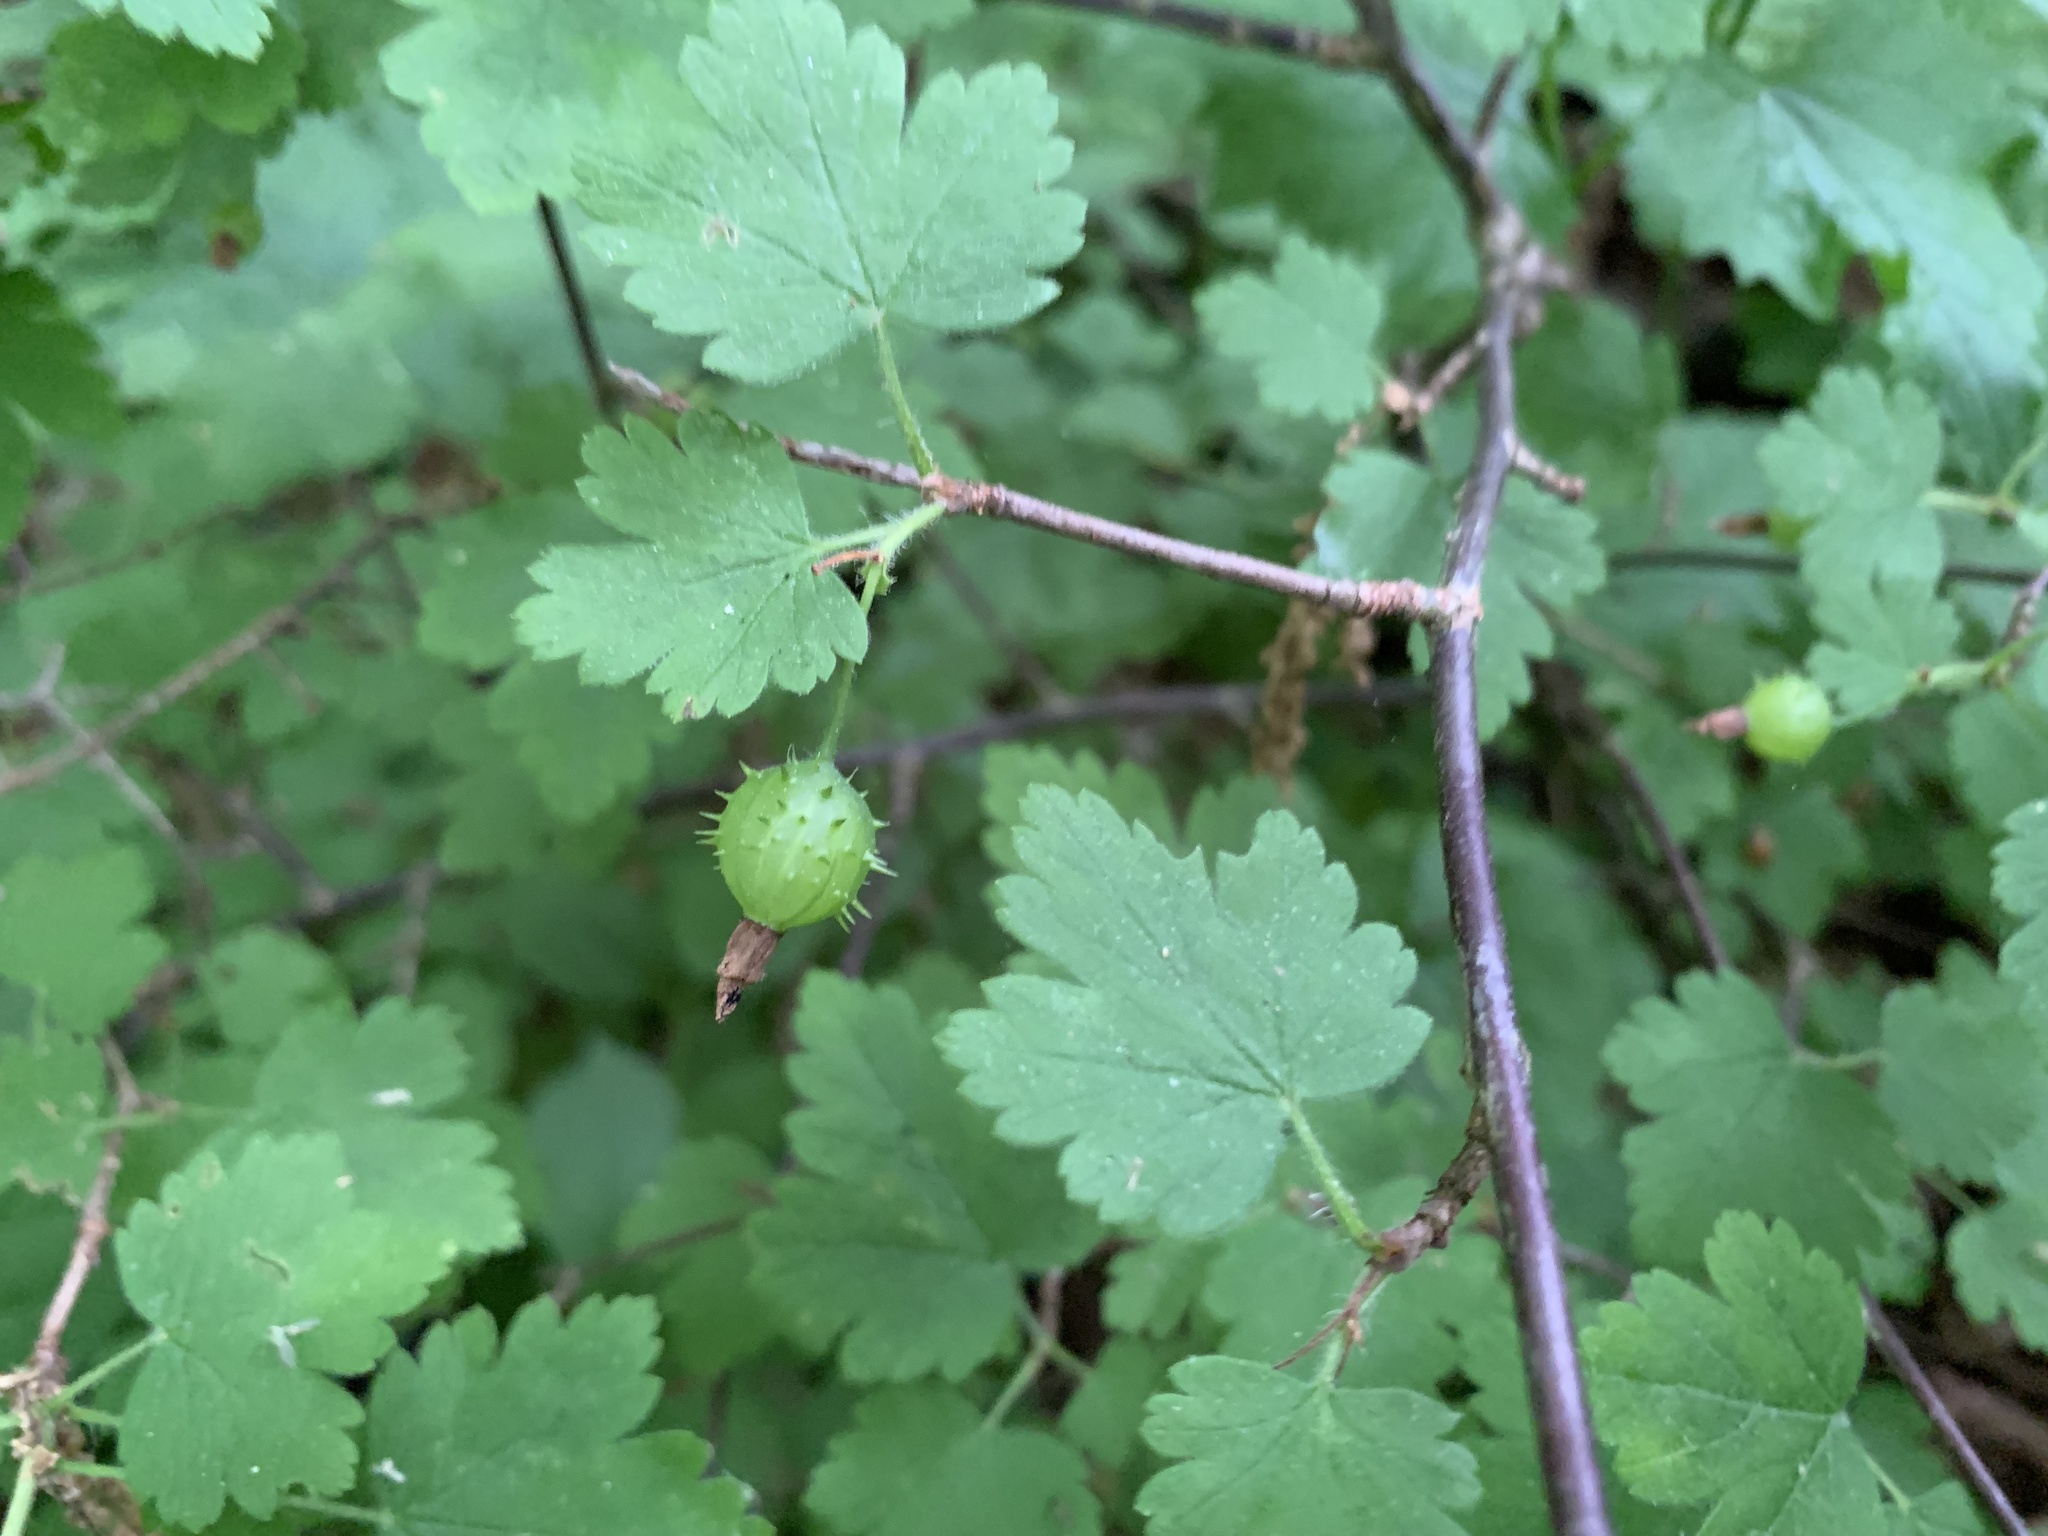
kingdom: Plantae
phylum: Tracheophyta
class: Magnoliopsida
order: Saxifragales
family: Grossulariaceae
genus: Ribes
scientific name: Ribes cynosbati
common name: American gooseberry
